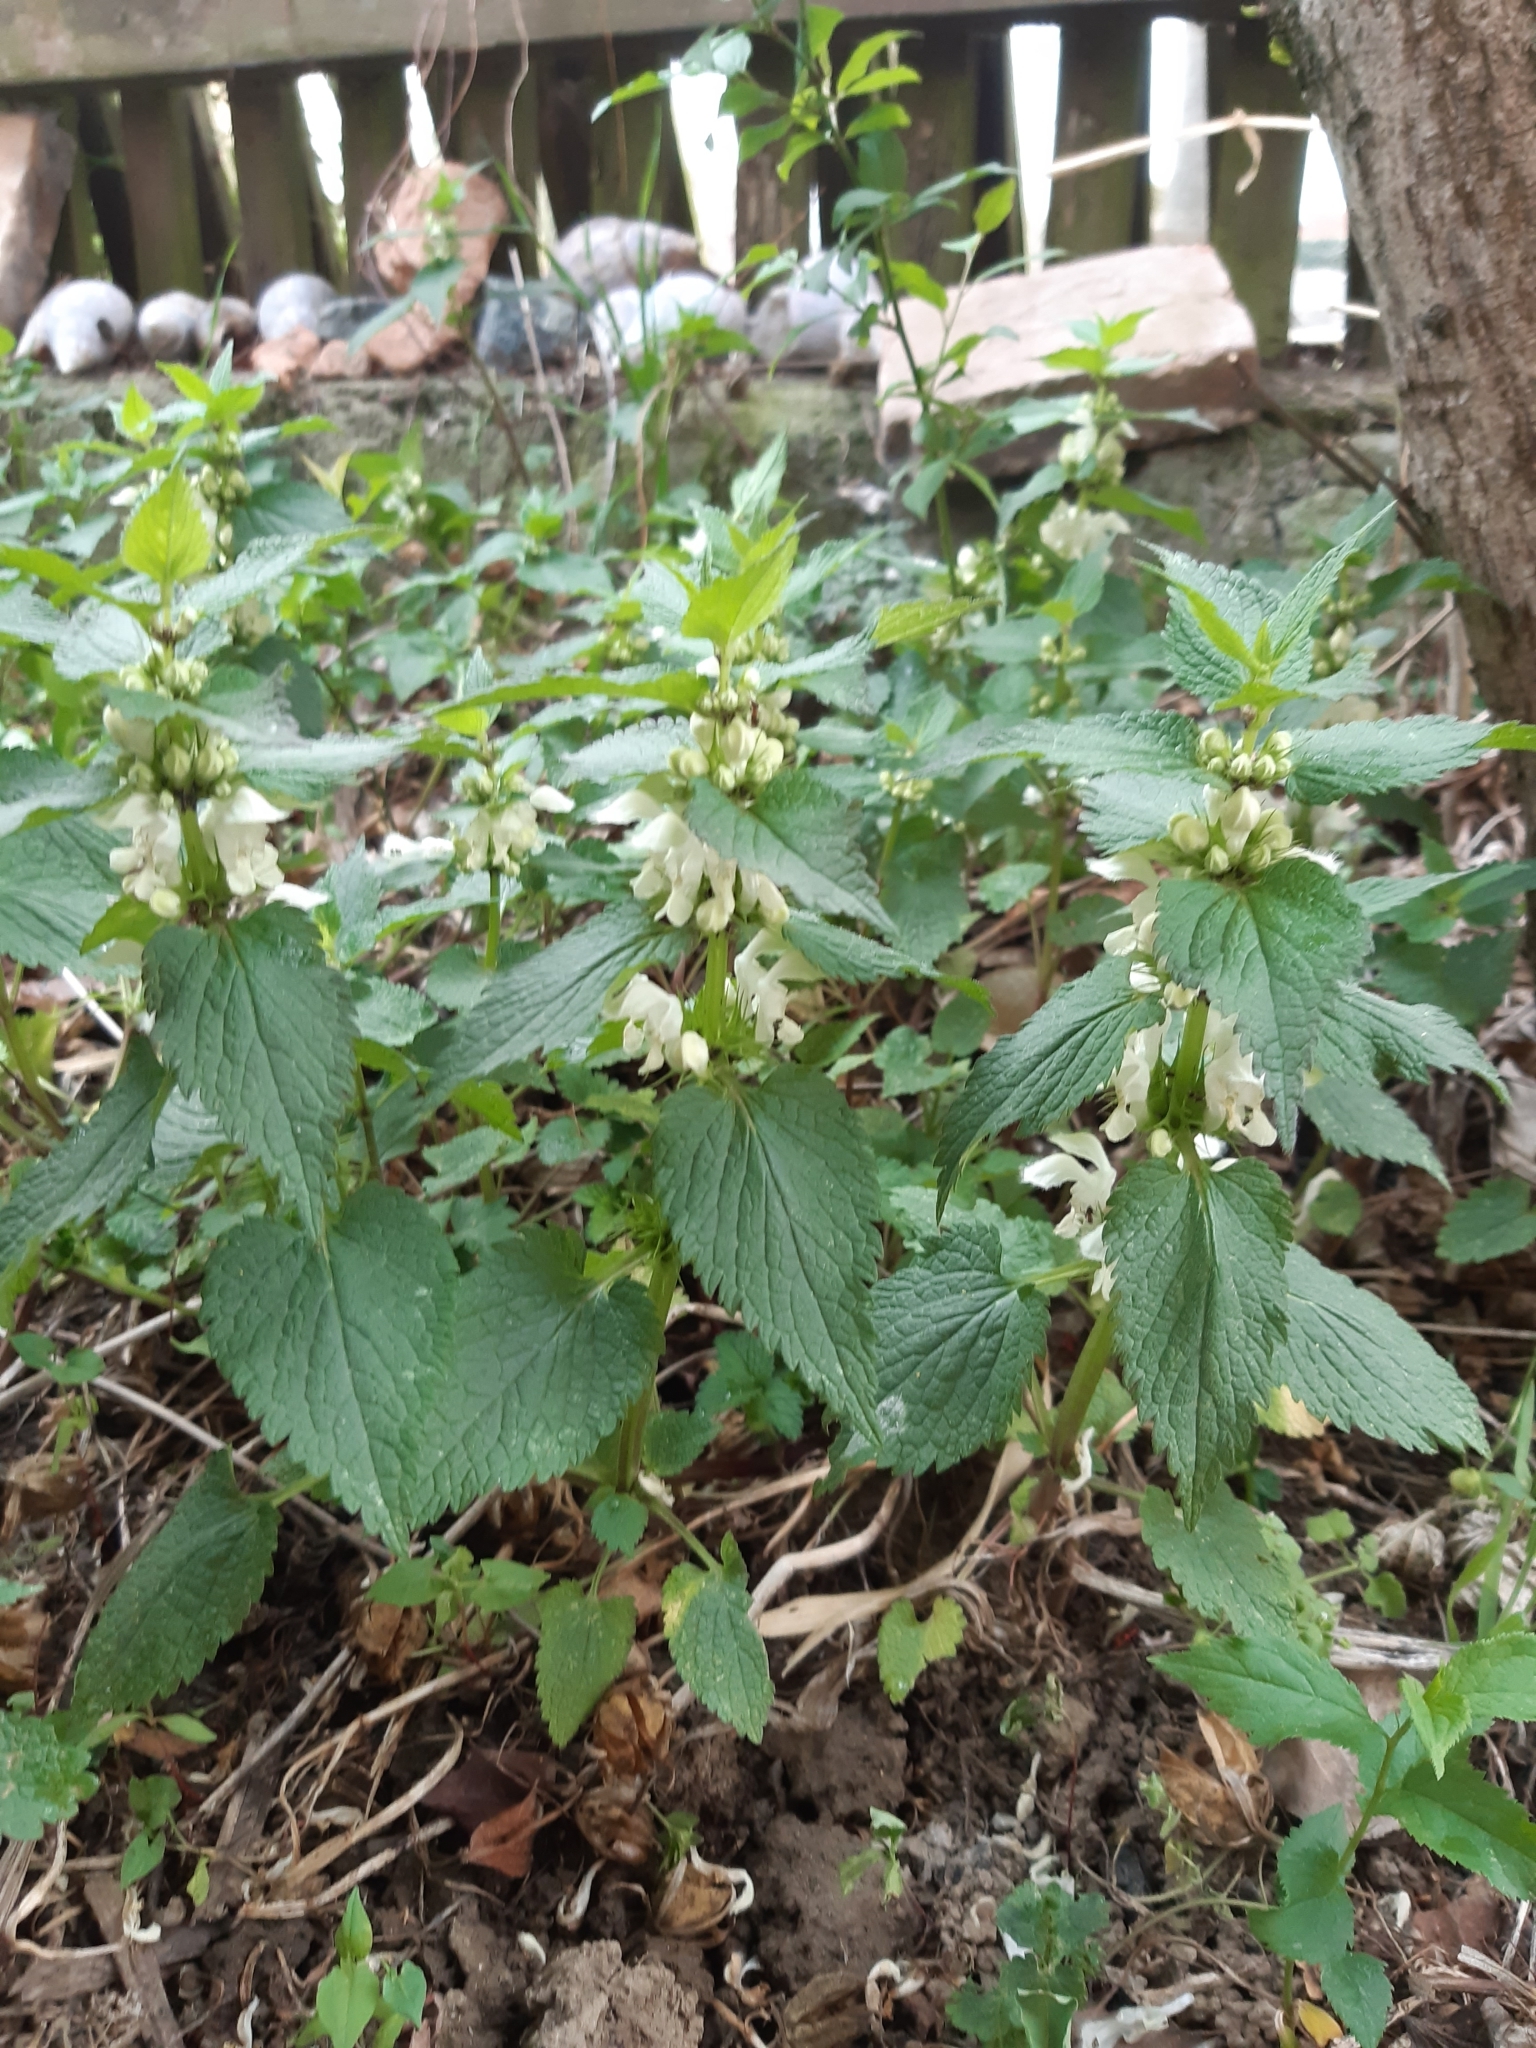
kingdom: Plantae
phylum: Tracheophyta
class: Magnoliopsida
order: Lamiales
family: Lamiaceae
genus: Lamium
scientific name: Lamium album
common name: White dead-nettle
